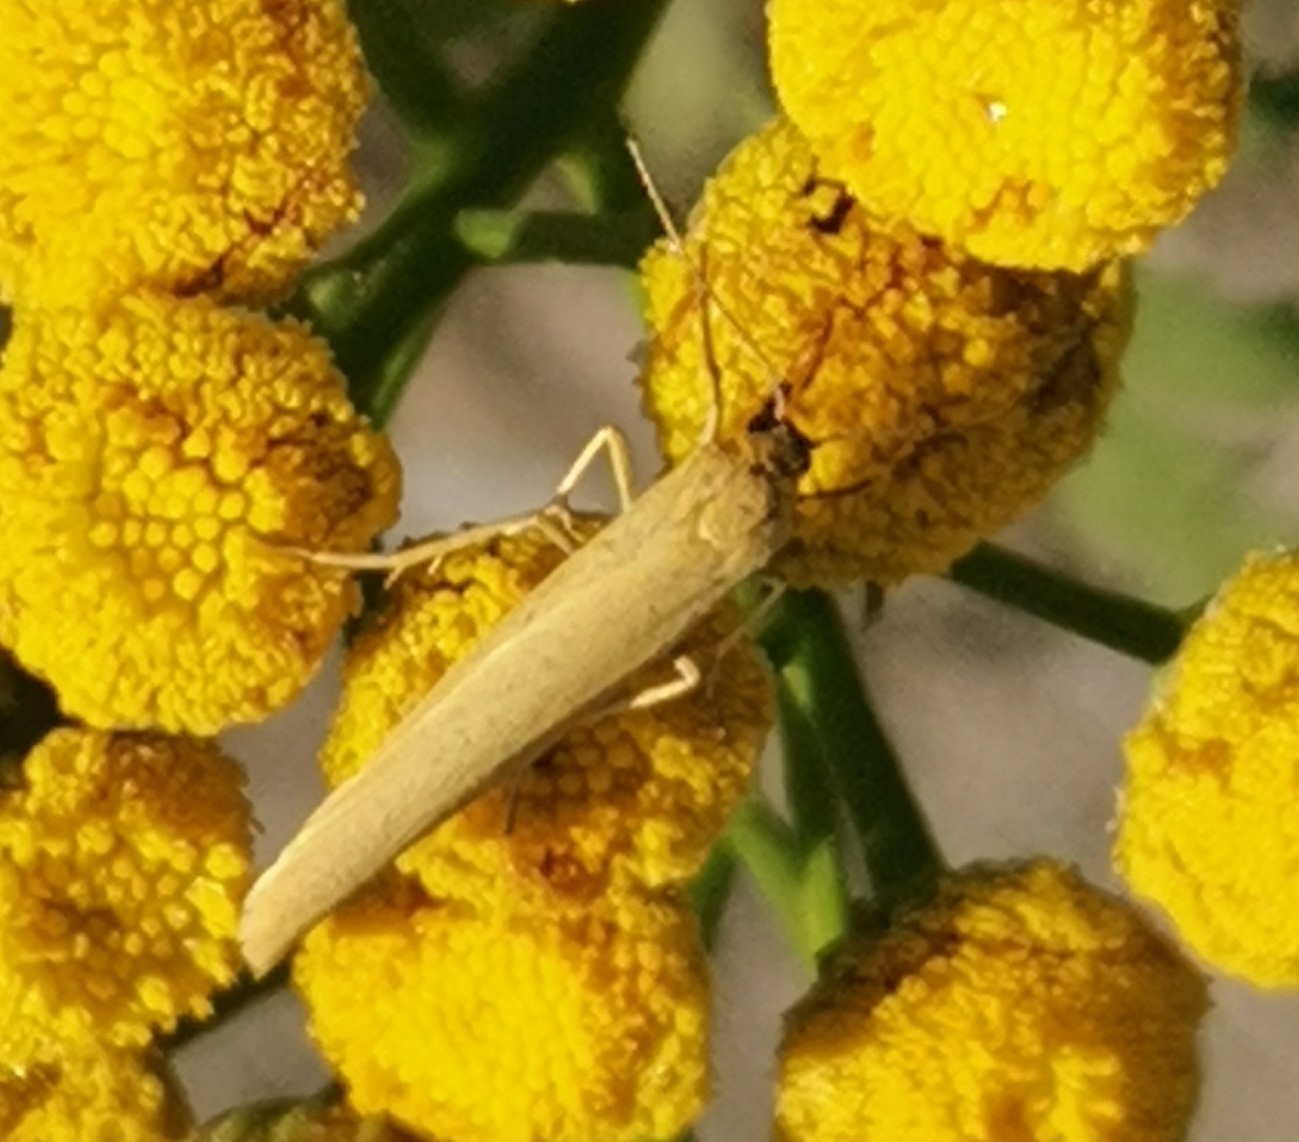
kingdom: Animalia
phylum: Arthropoda
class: Insecta
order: Lepidoptera
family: Erebidae
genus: Indalia
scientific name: Indalia lutarella
